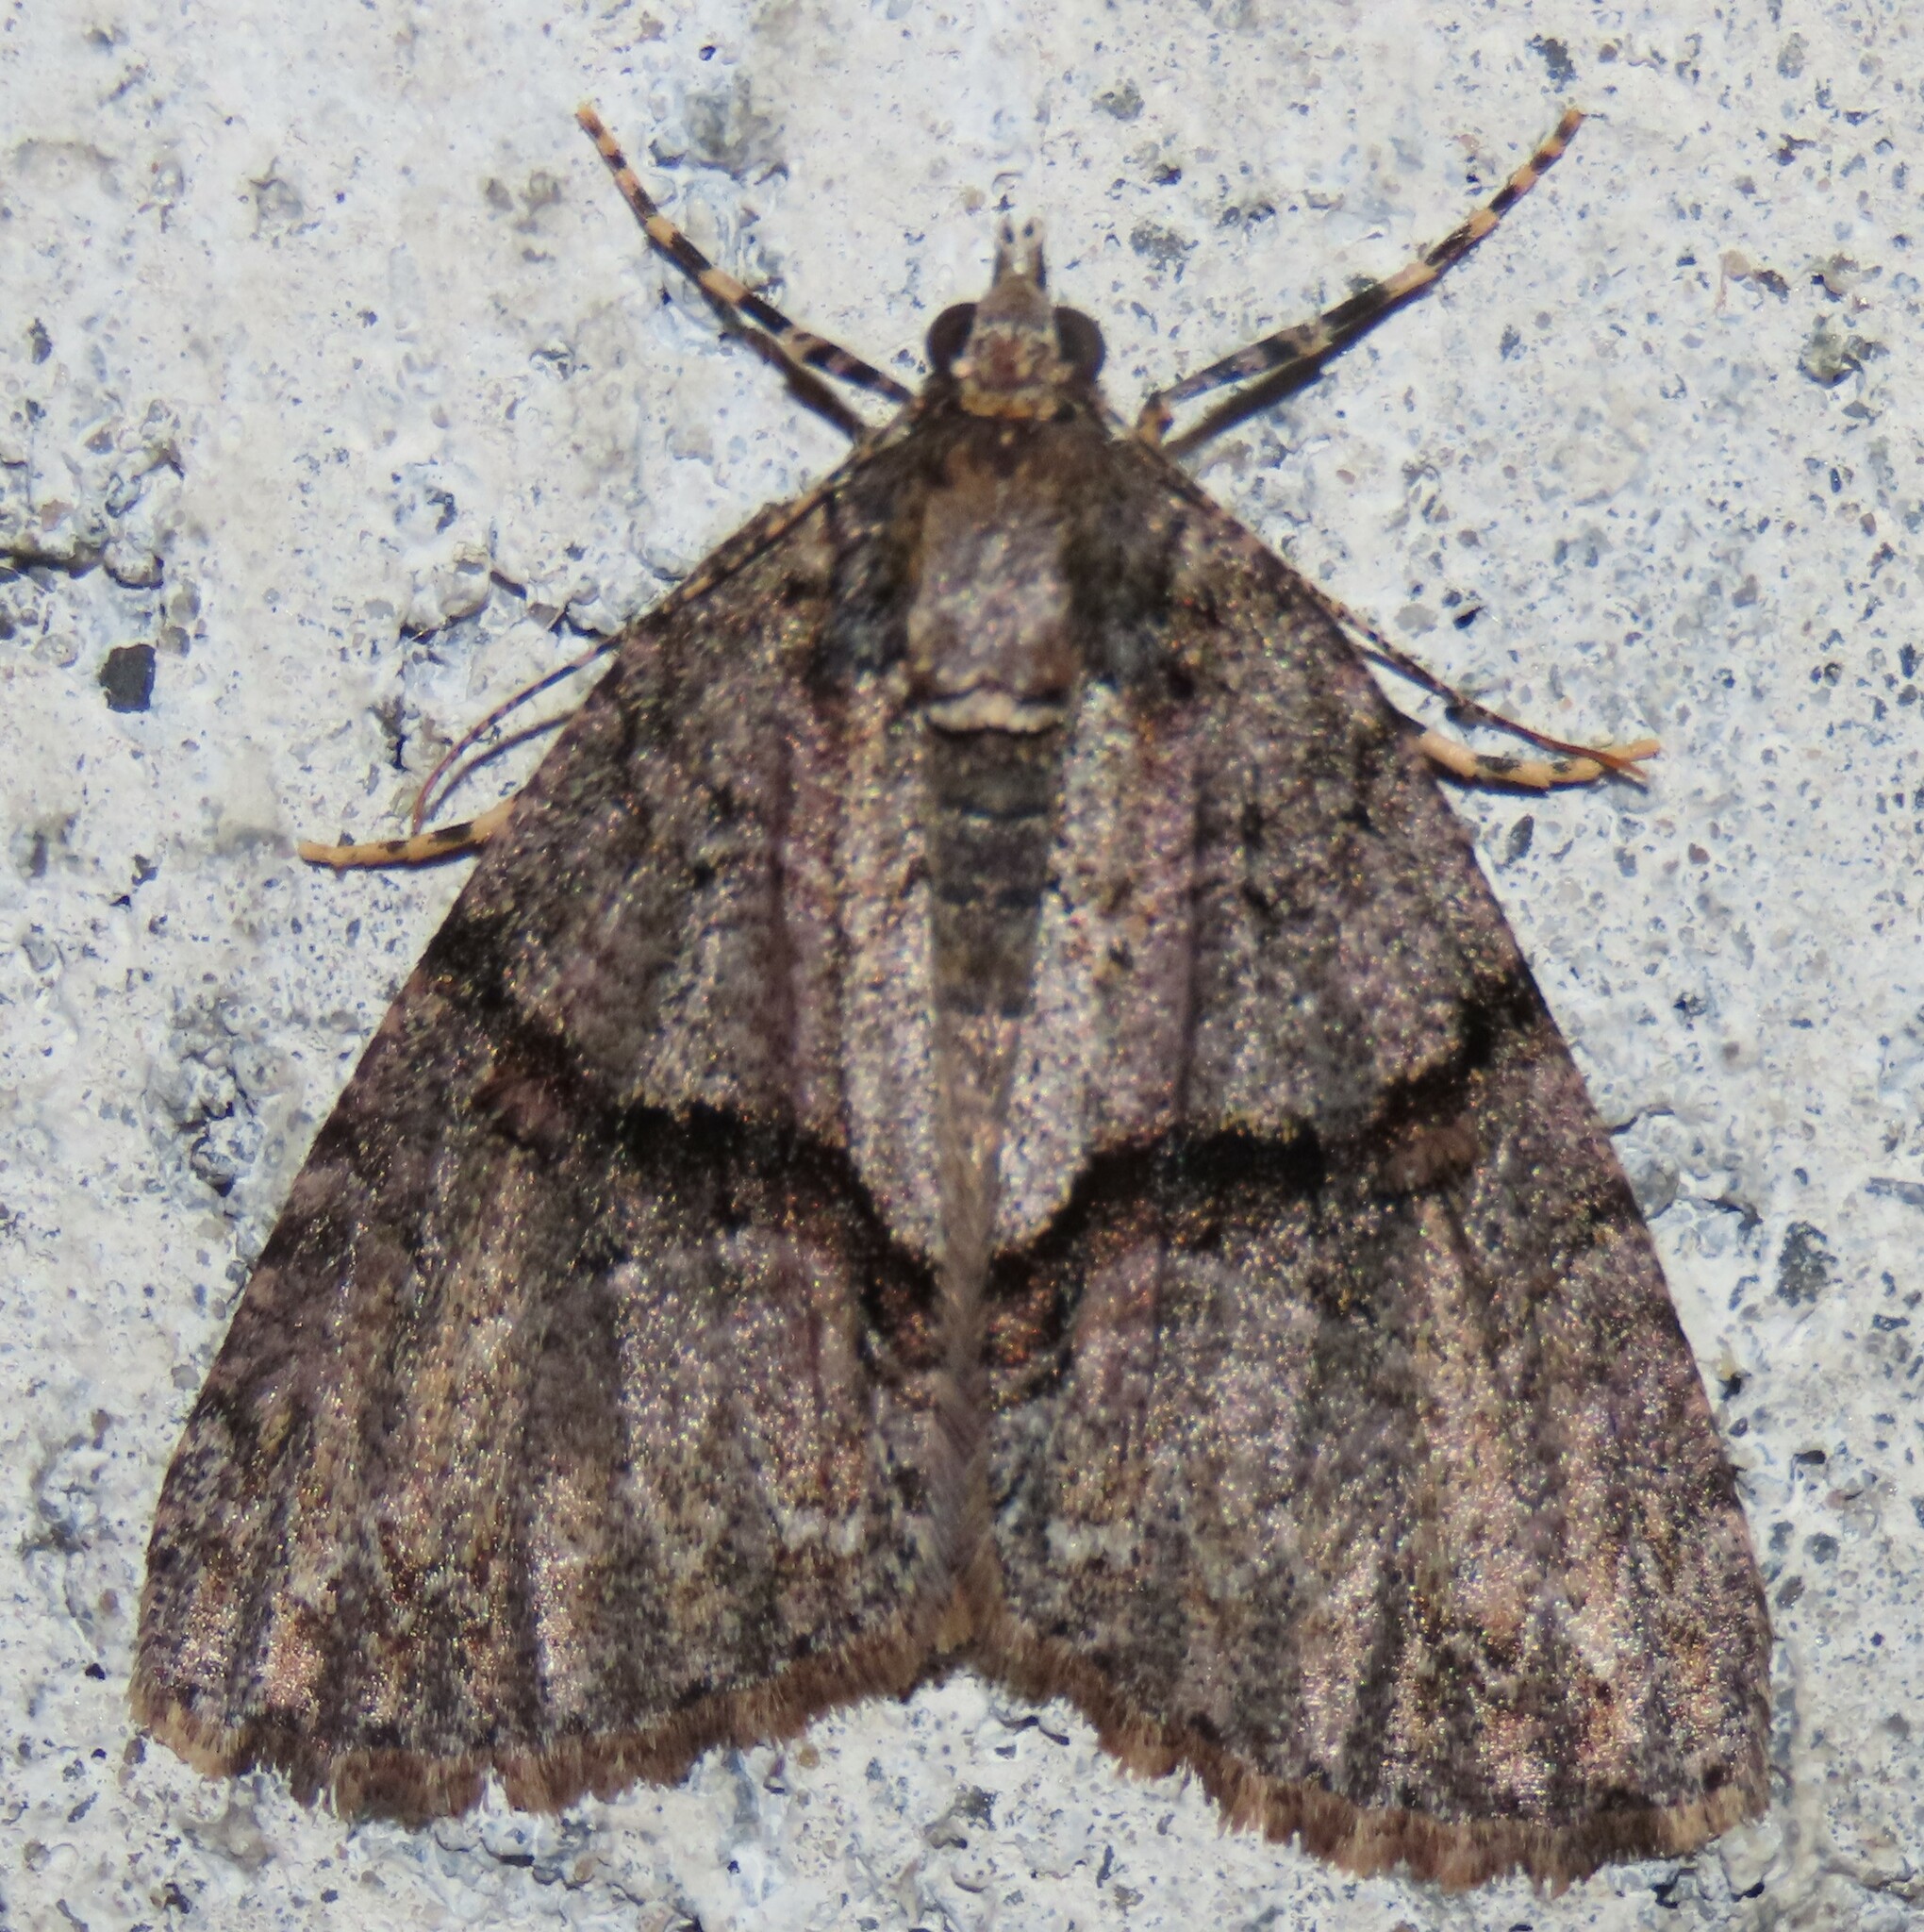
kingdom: Animalia
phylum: Arthropoda
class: Insecta
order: Lepidoptera
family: Geometridae
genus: Pseudocoremia
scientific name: Pseudocoremia suavis
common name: Common forest looper
